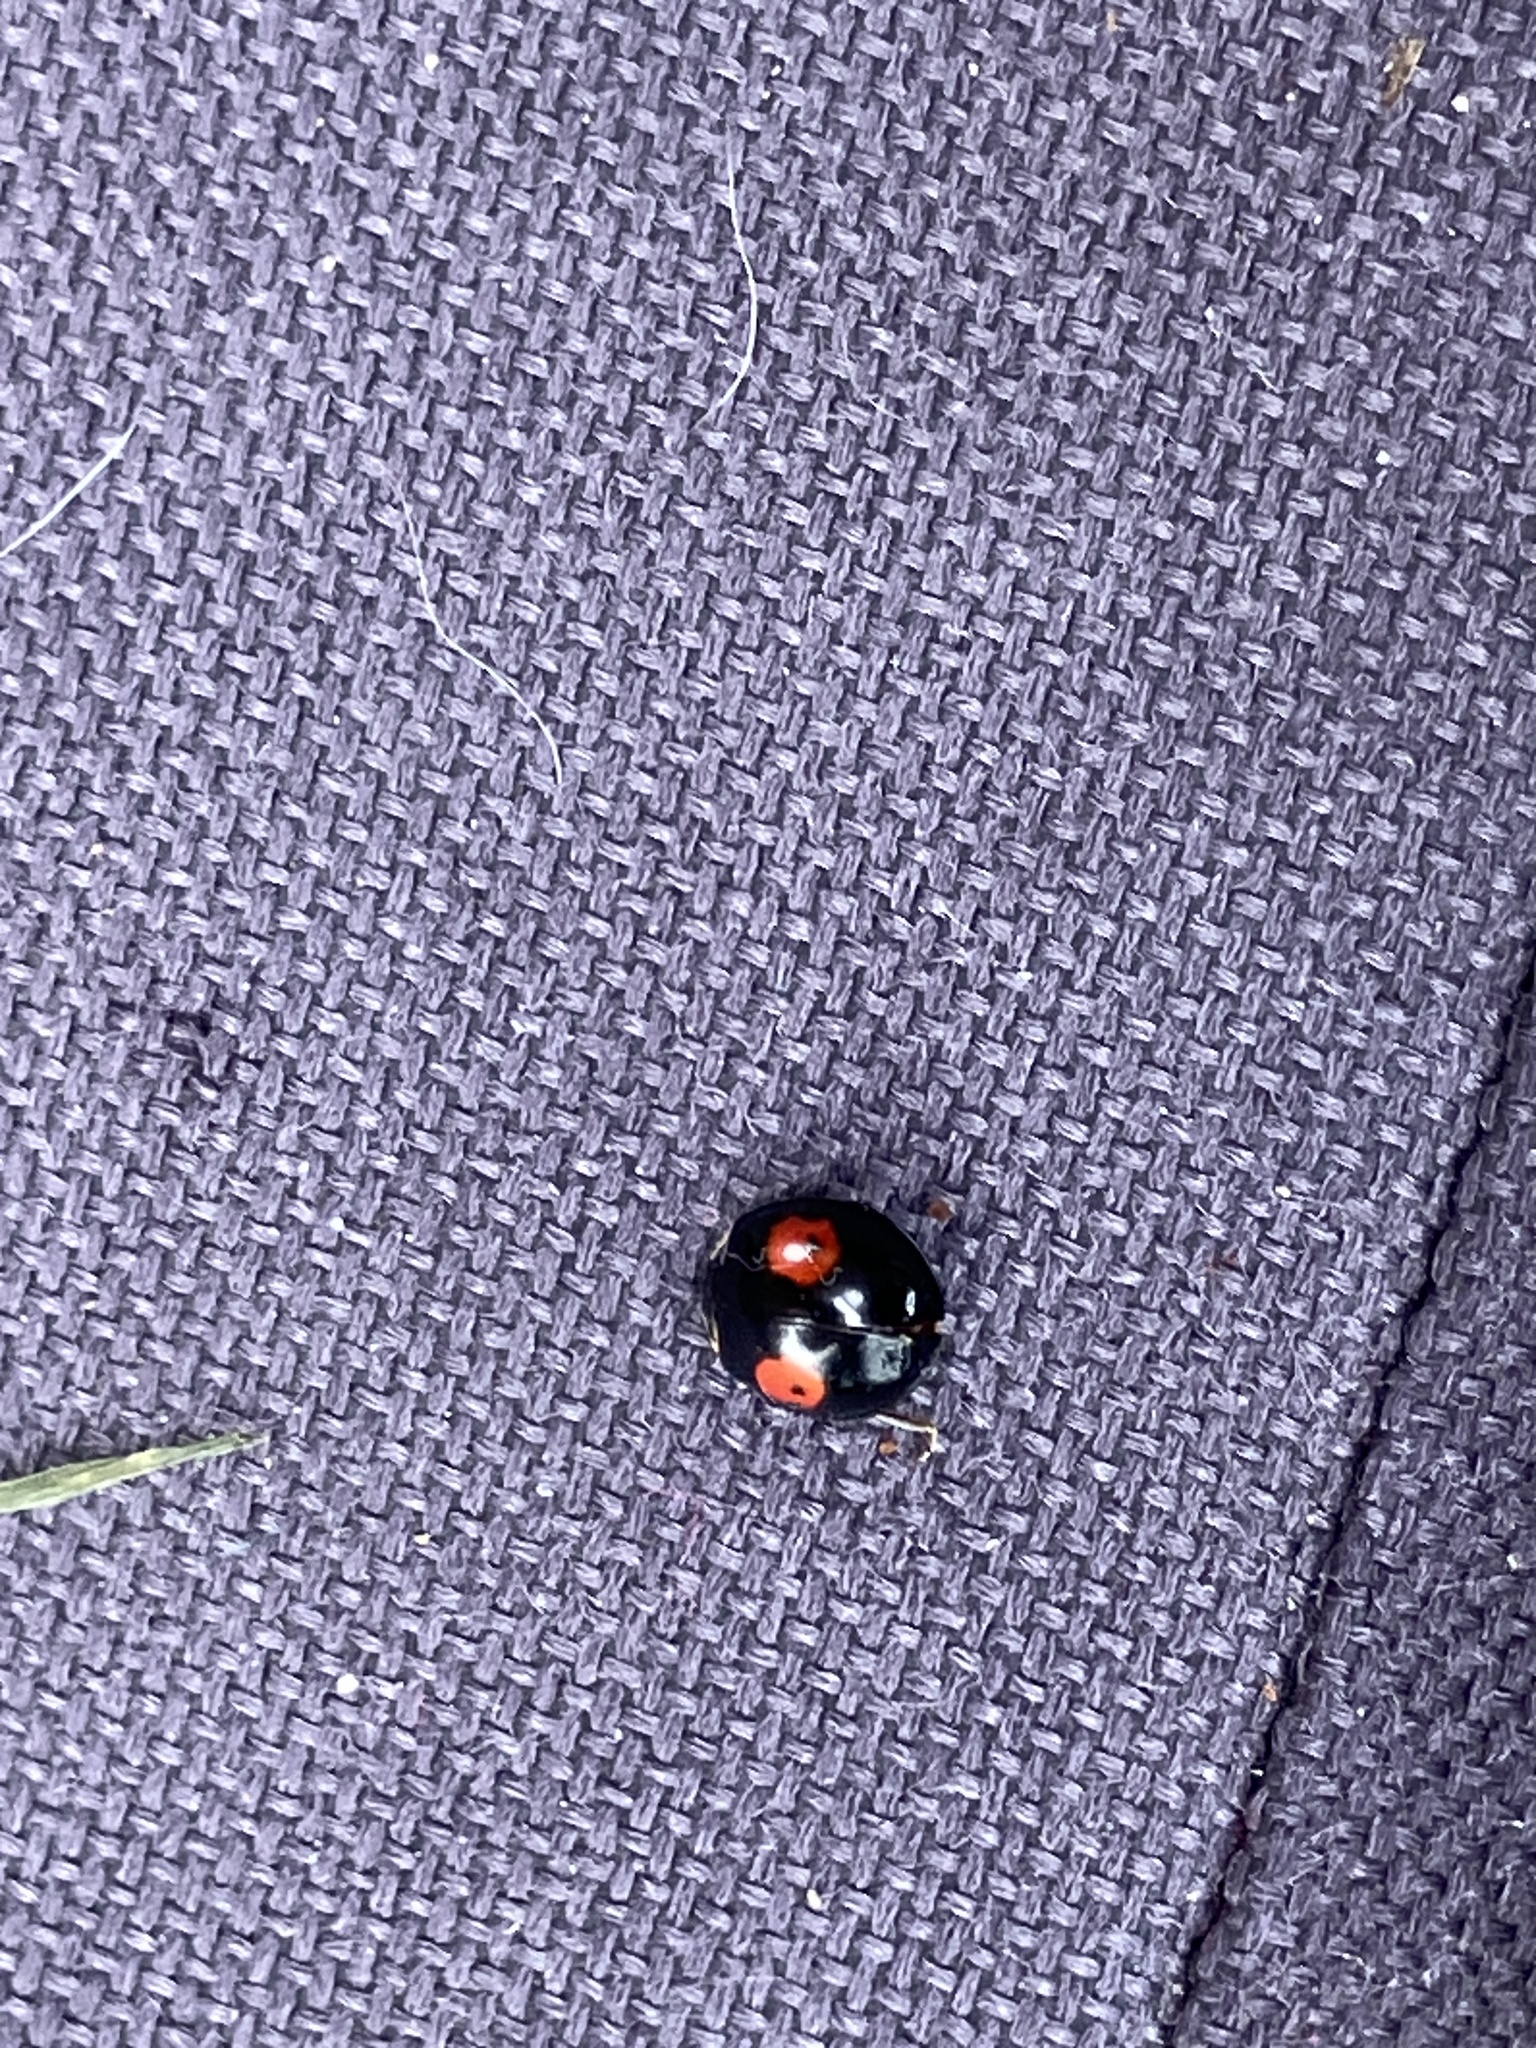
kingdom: Animalia
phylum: Arthropoda
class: Insecta
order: Coleoptera
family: Coccinellidae
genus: Harmonia
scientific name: Harmonia axyridis
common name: Harlequin ladybird
